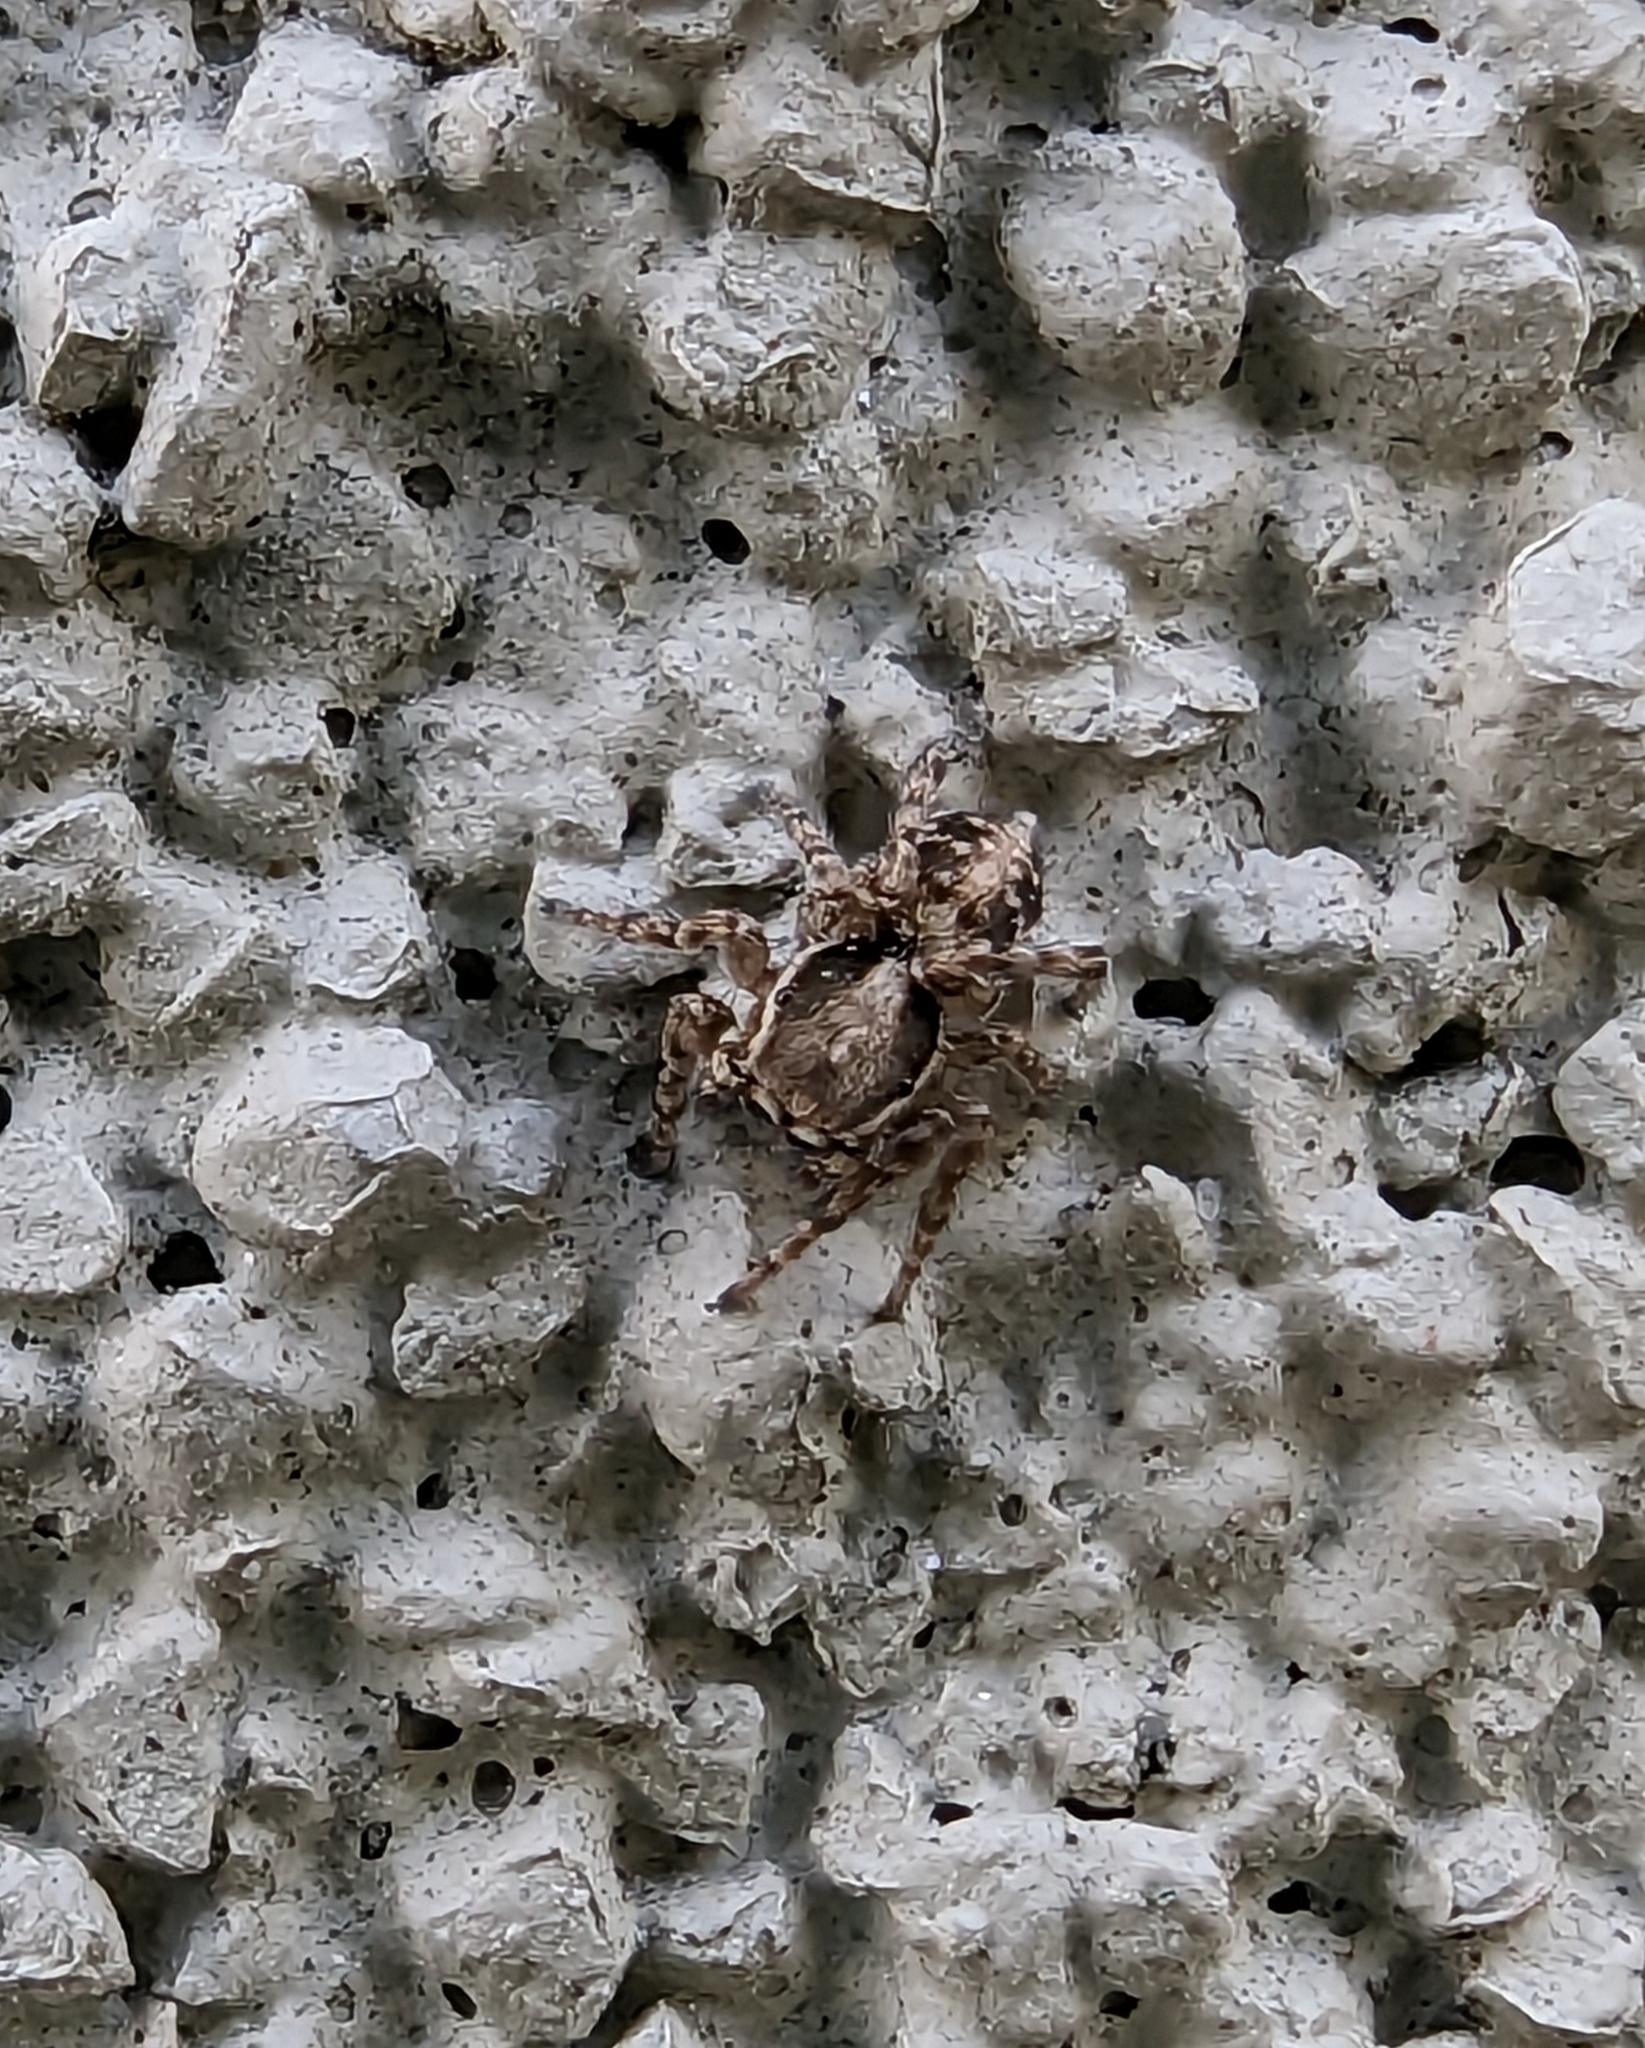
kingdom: Animalia
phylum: Arthropoda
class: Arachnida
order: Araneae
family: Salticidae
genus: Attulus
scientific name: Attulus ammophilus
